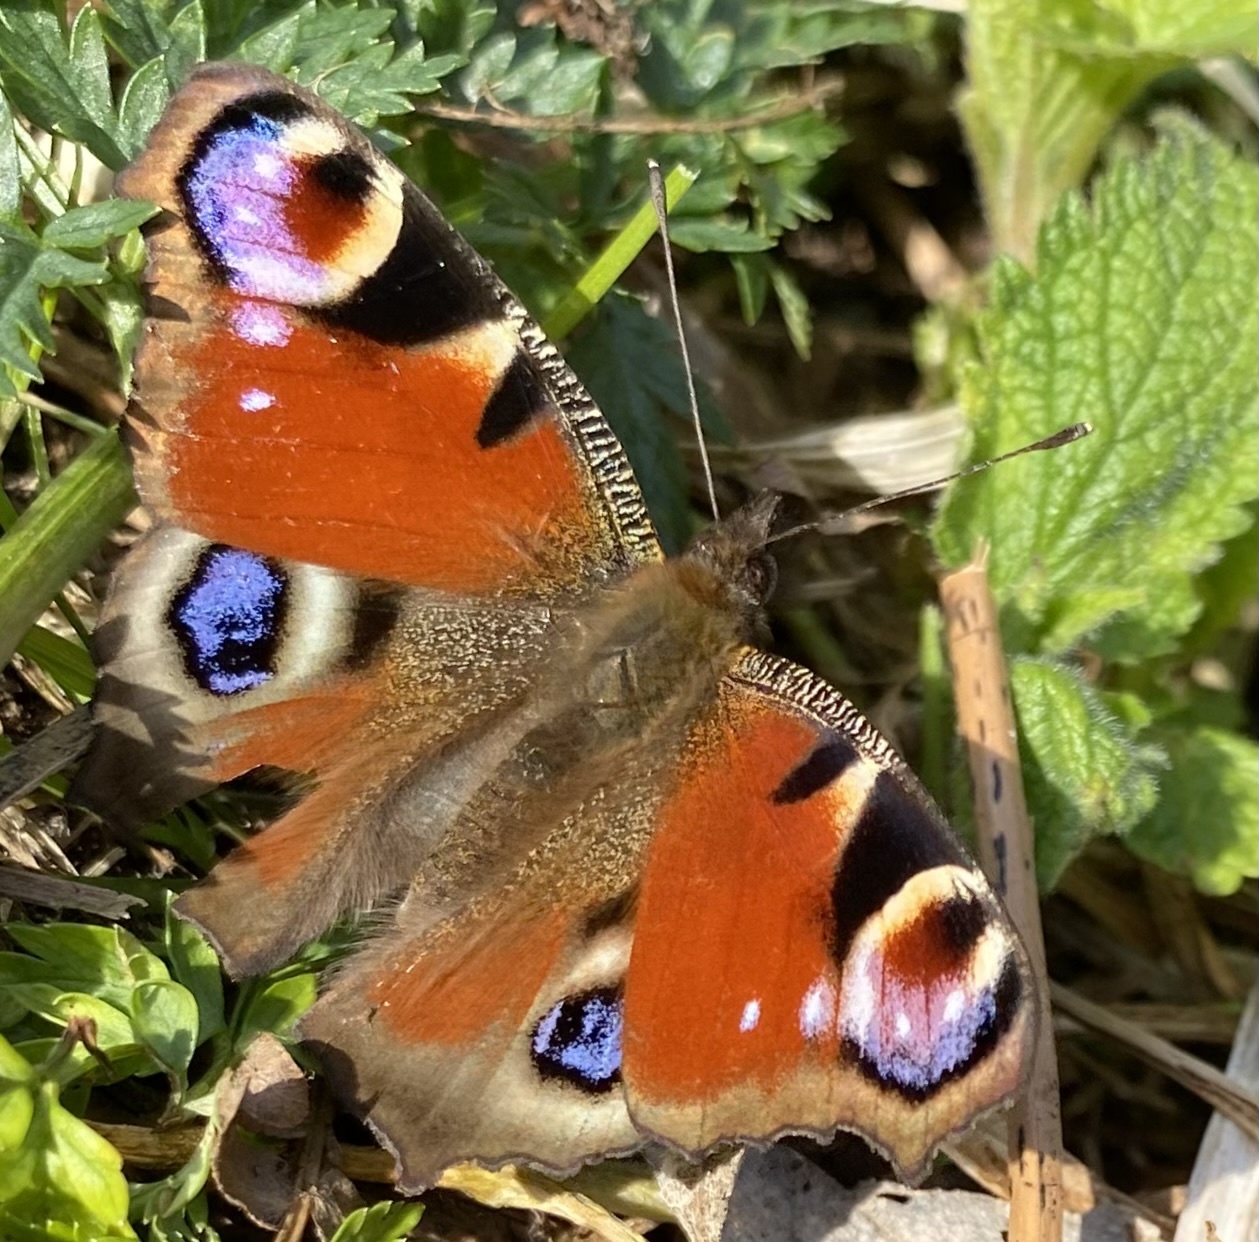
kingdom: Animalia
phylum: Arthropoda
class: Insecta
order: Lepidoptera
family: Nymphalidae
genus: Aglais
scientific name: Aglais io
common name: Peacock
